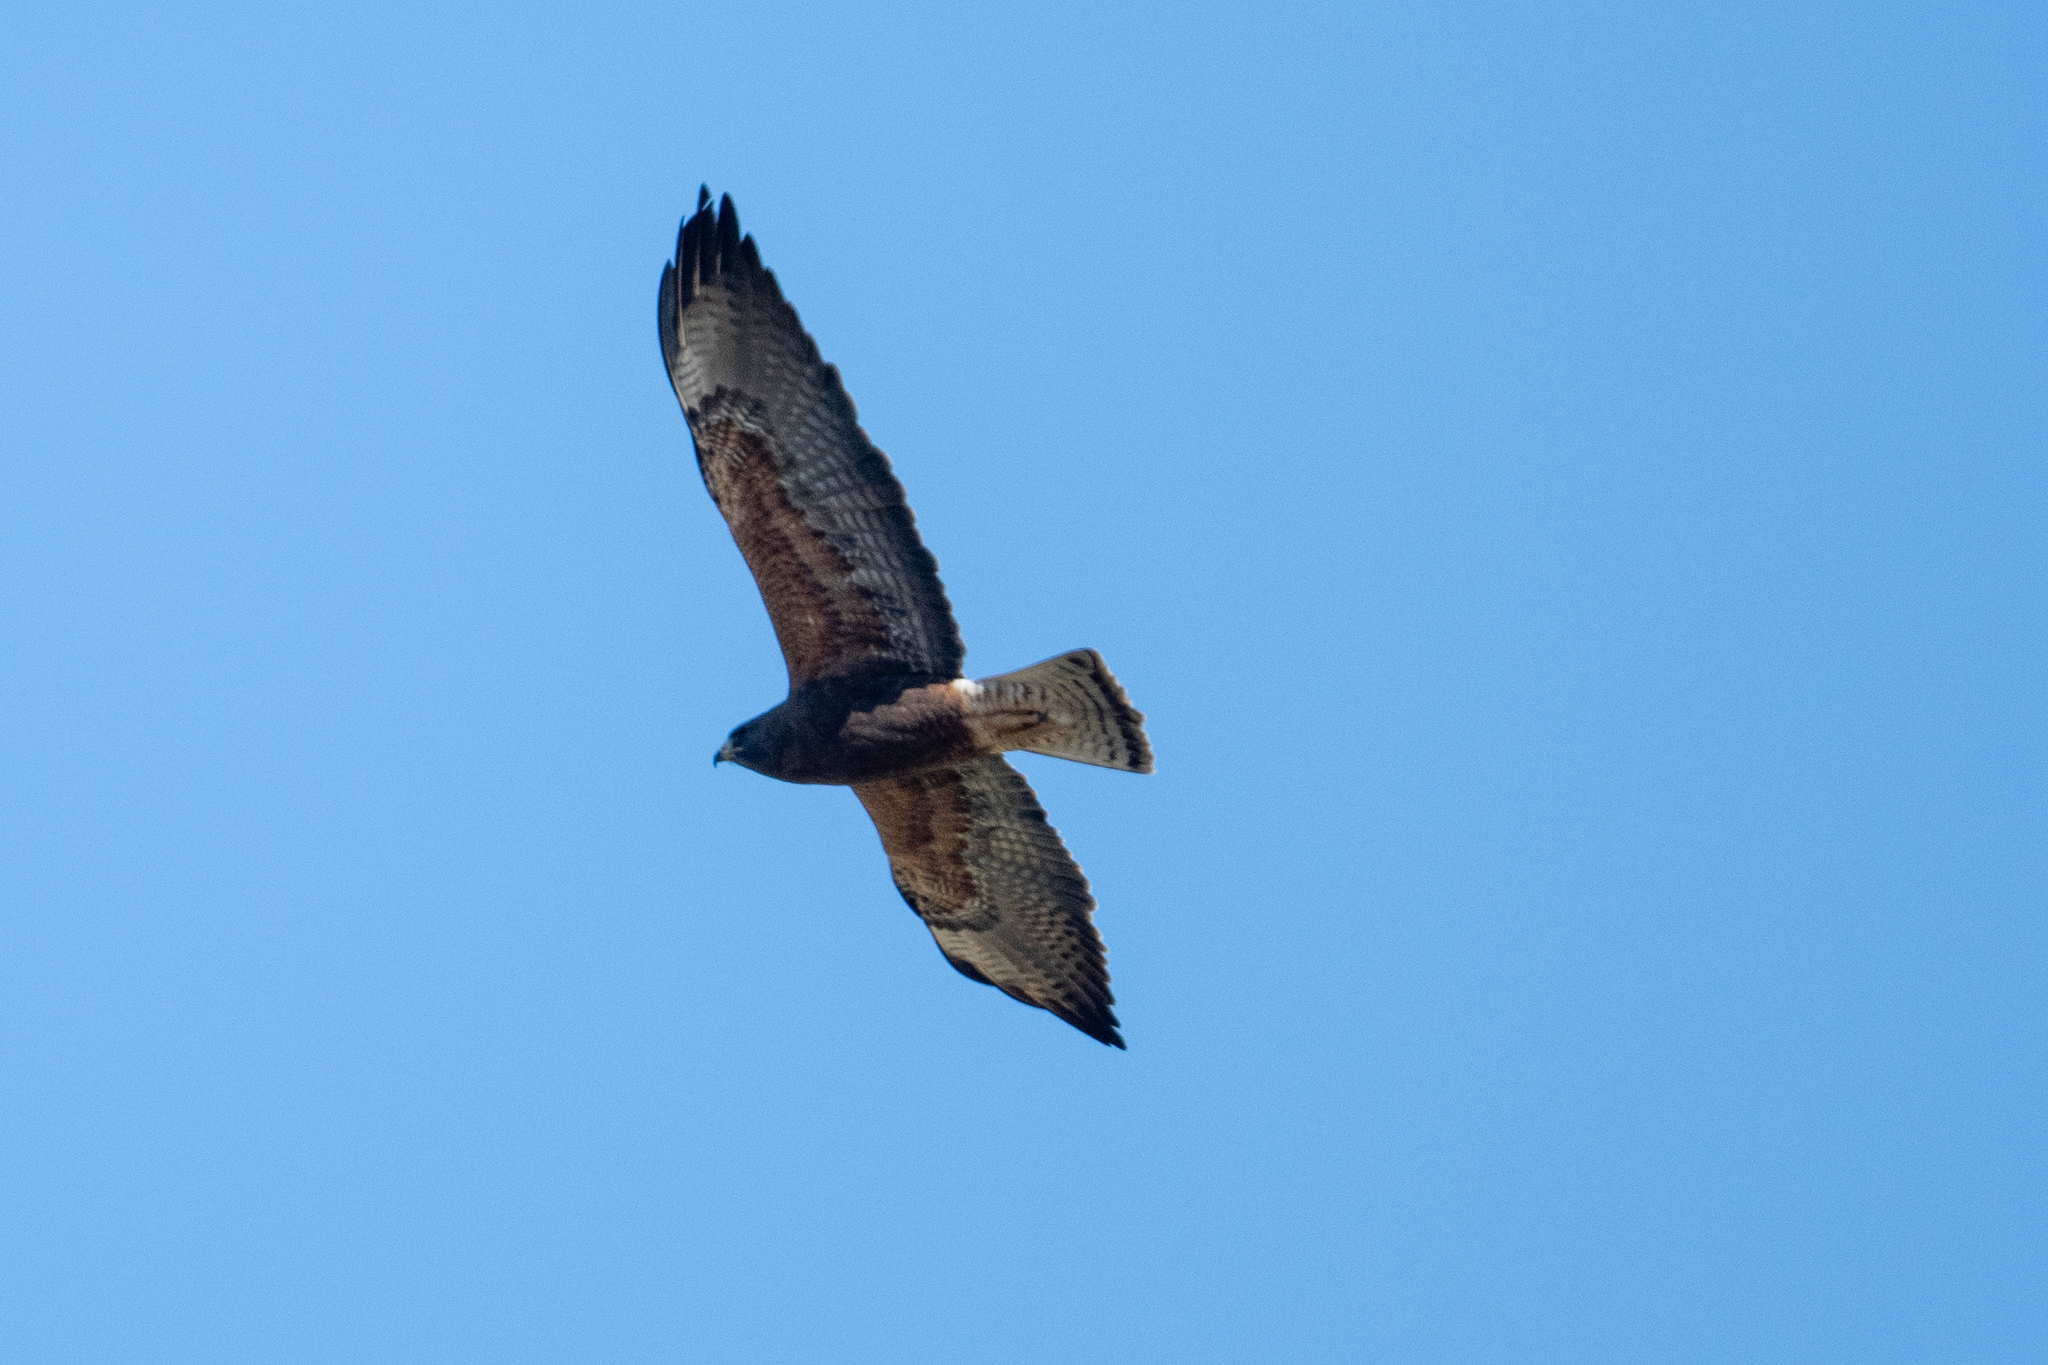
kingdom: Animalia
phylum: Chordata
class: Aves
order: Accipitriformes
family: Accipitridae
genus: Buteo
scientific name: Buteo swainsoni
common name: Swainson's hawk
